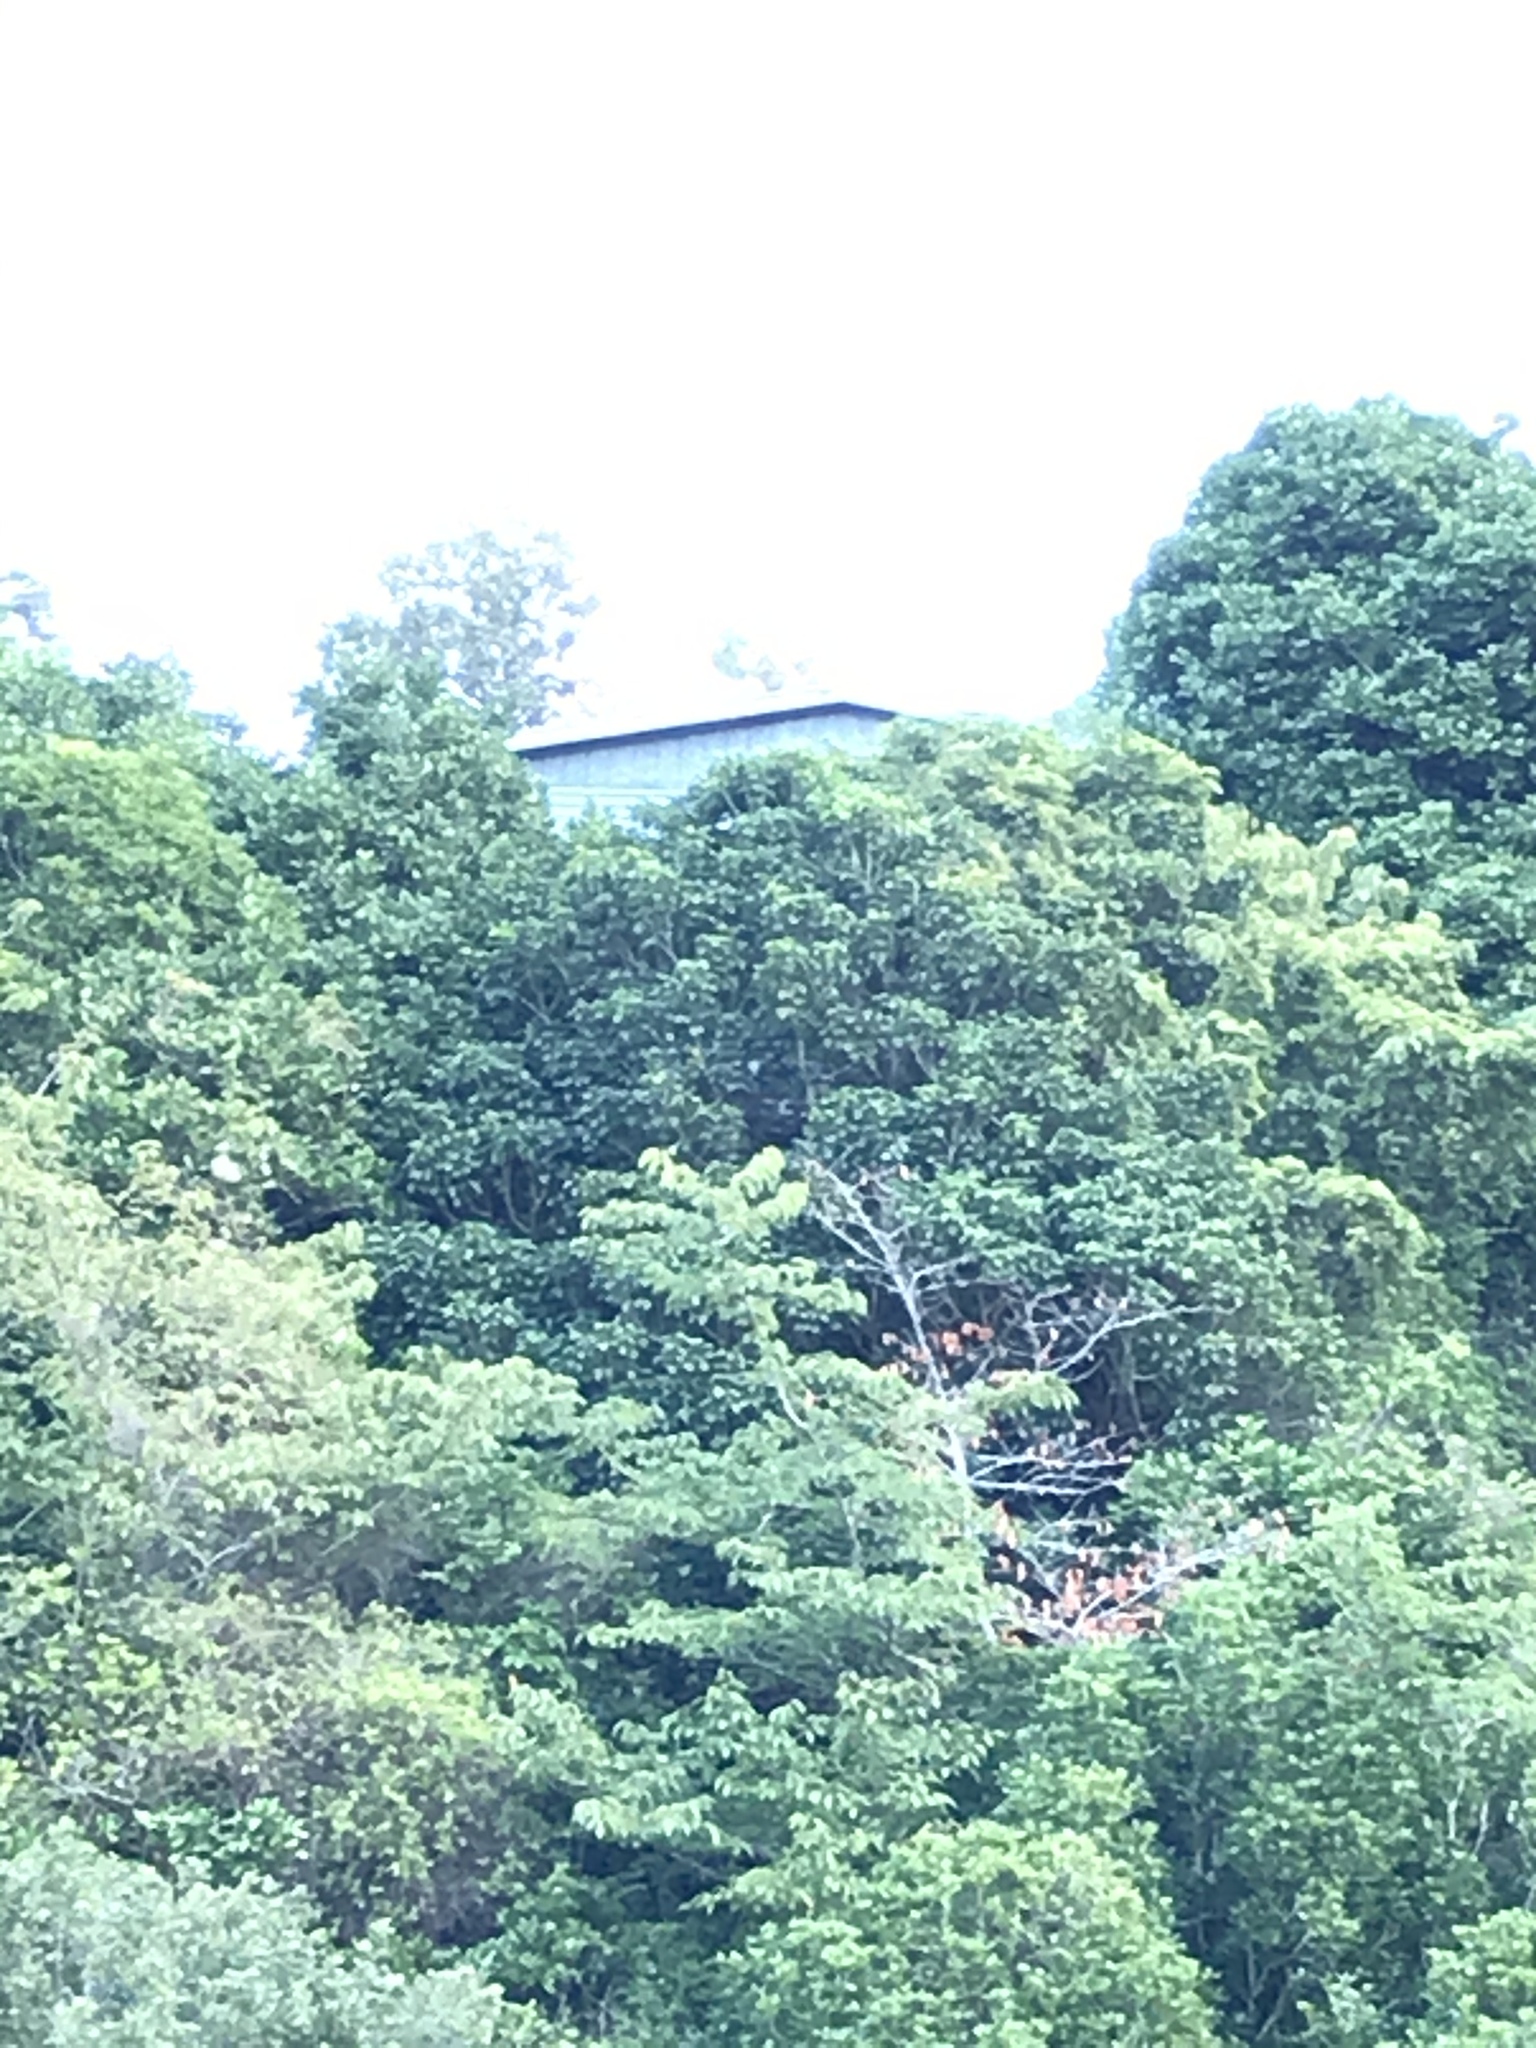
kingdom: Plantae
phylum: Tracheophyta
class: Magnoliopsida
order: Lamiales
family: Lamiaceae
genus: Vitex
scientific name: Vitex lucens
